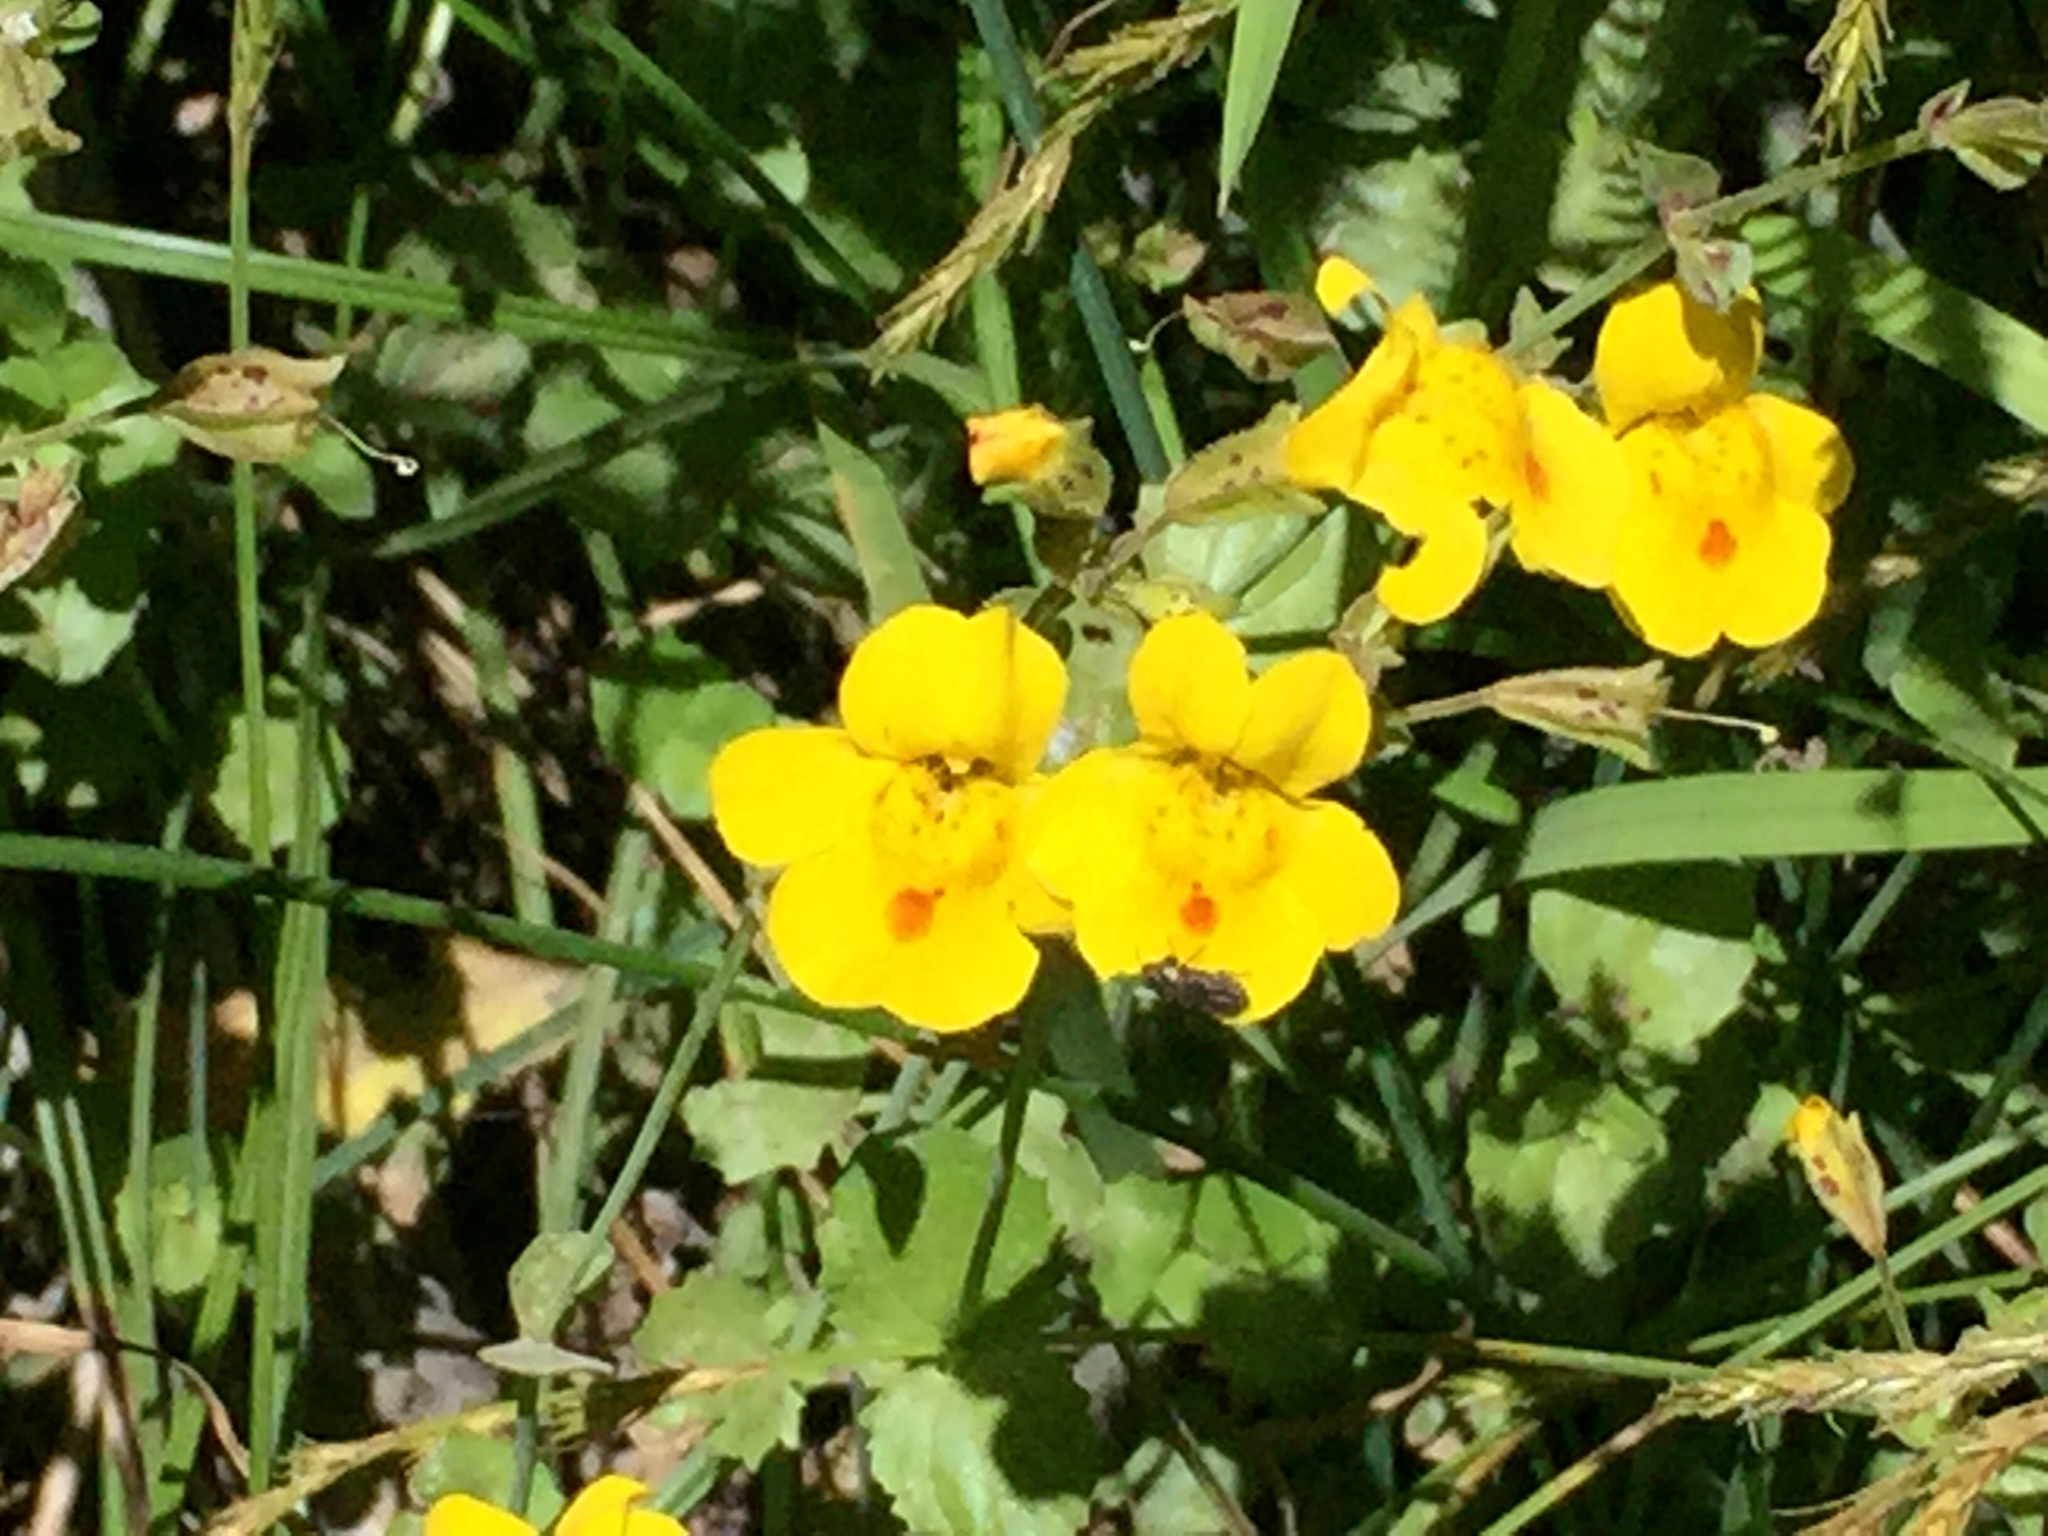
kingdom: Plantae
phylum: Tracheophyta
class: Magnoliopsida
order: Lamiales
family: Phrymaceae
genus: Erythranthe
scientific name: Erythranthe guttata
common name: Monkeyflower
